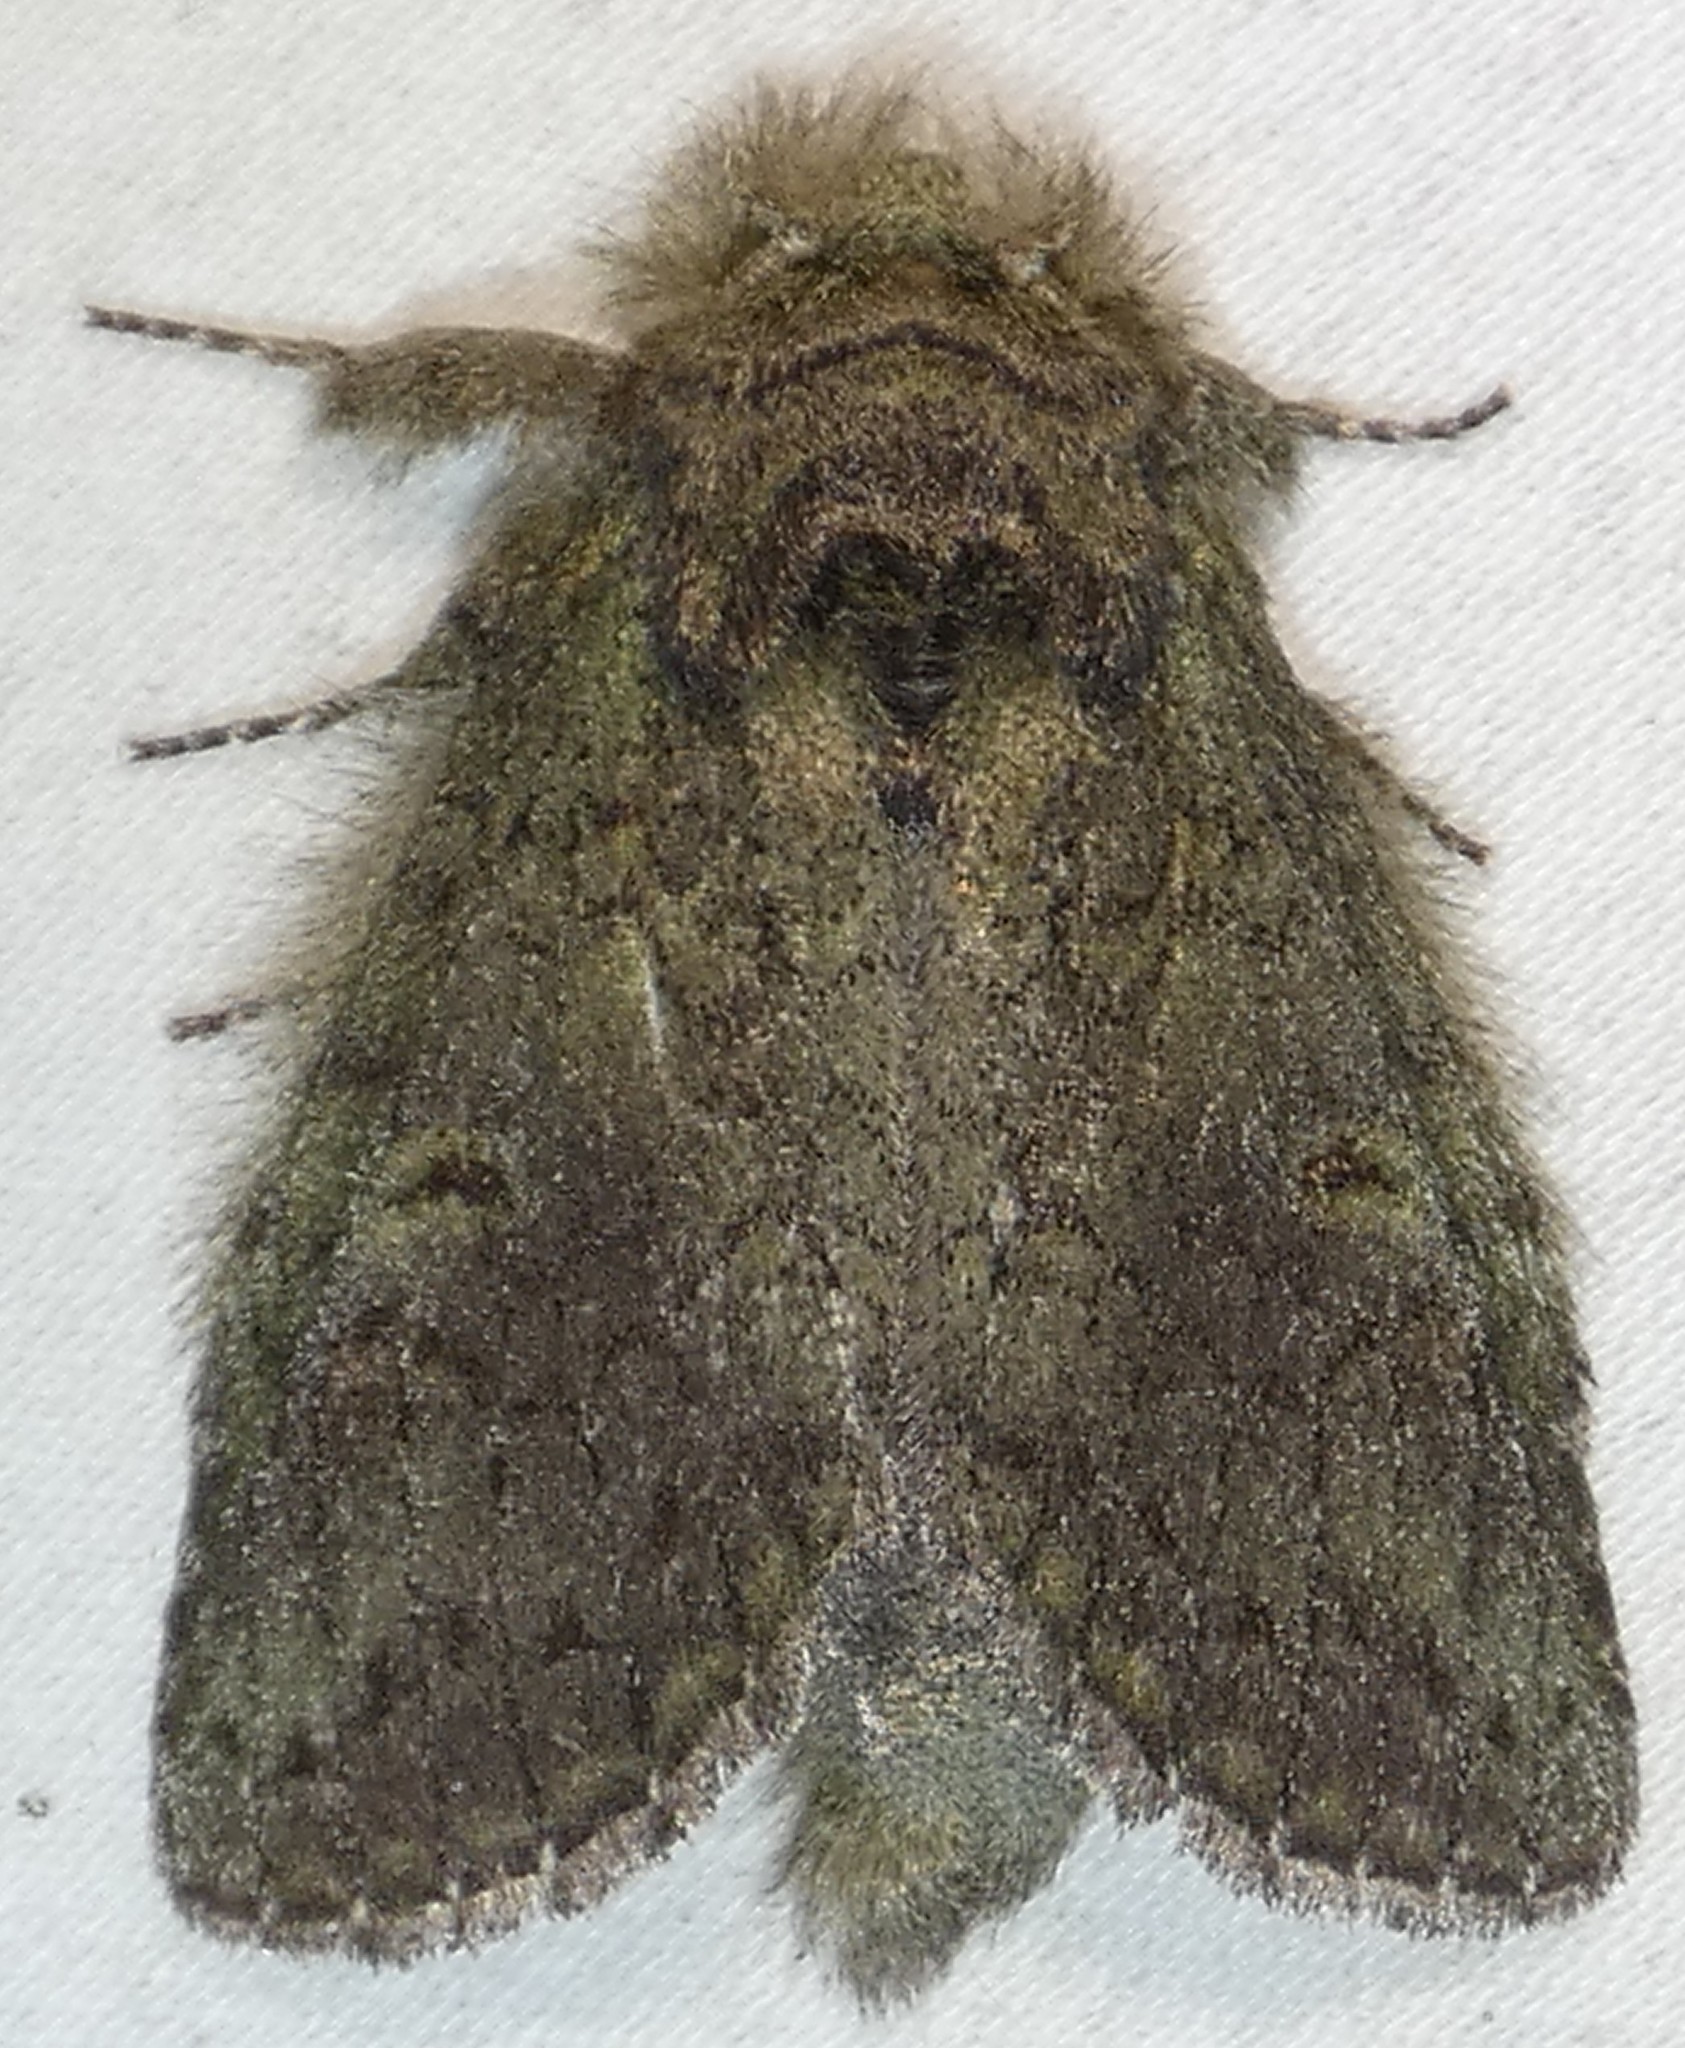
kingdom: Animalia
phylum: Arthropoda
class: Insecta
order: Lepidoptera
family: Notodontidae
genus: Disphragis
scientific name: Disphragis Cecrita biundata
